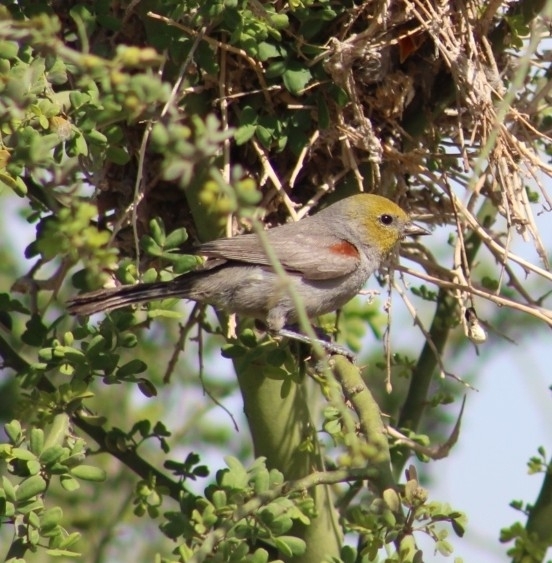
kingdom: Animalia
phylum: Chordata
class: Aves
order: Passeriformes
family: Remizidae
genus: Auriparus
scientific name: Auriparus flaviceps
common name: Verdin
